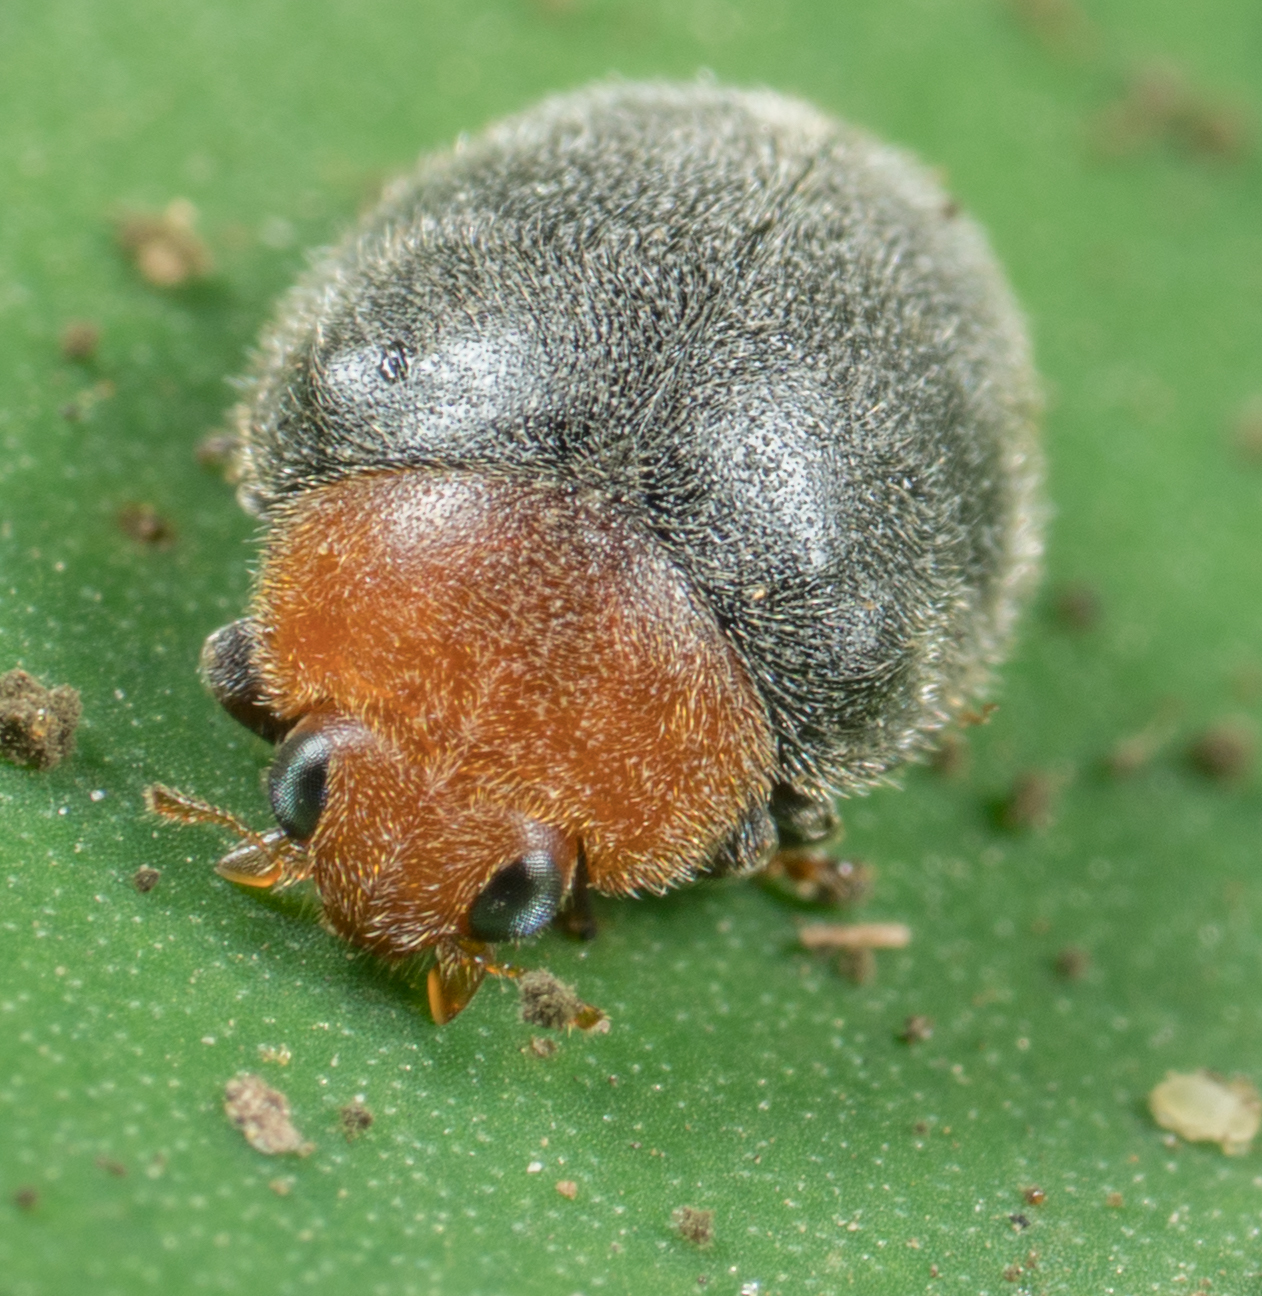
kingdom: Animalia
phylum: Arthropoda
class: Insecta
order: Coleoptera
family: Coccinellidae
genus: Cryptolaemus
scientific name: Cryptolaemus montrouzieri
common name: Mealybug destroyer
